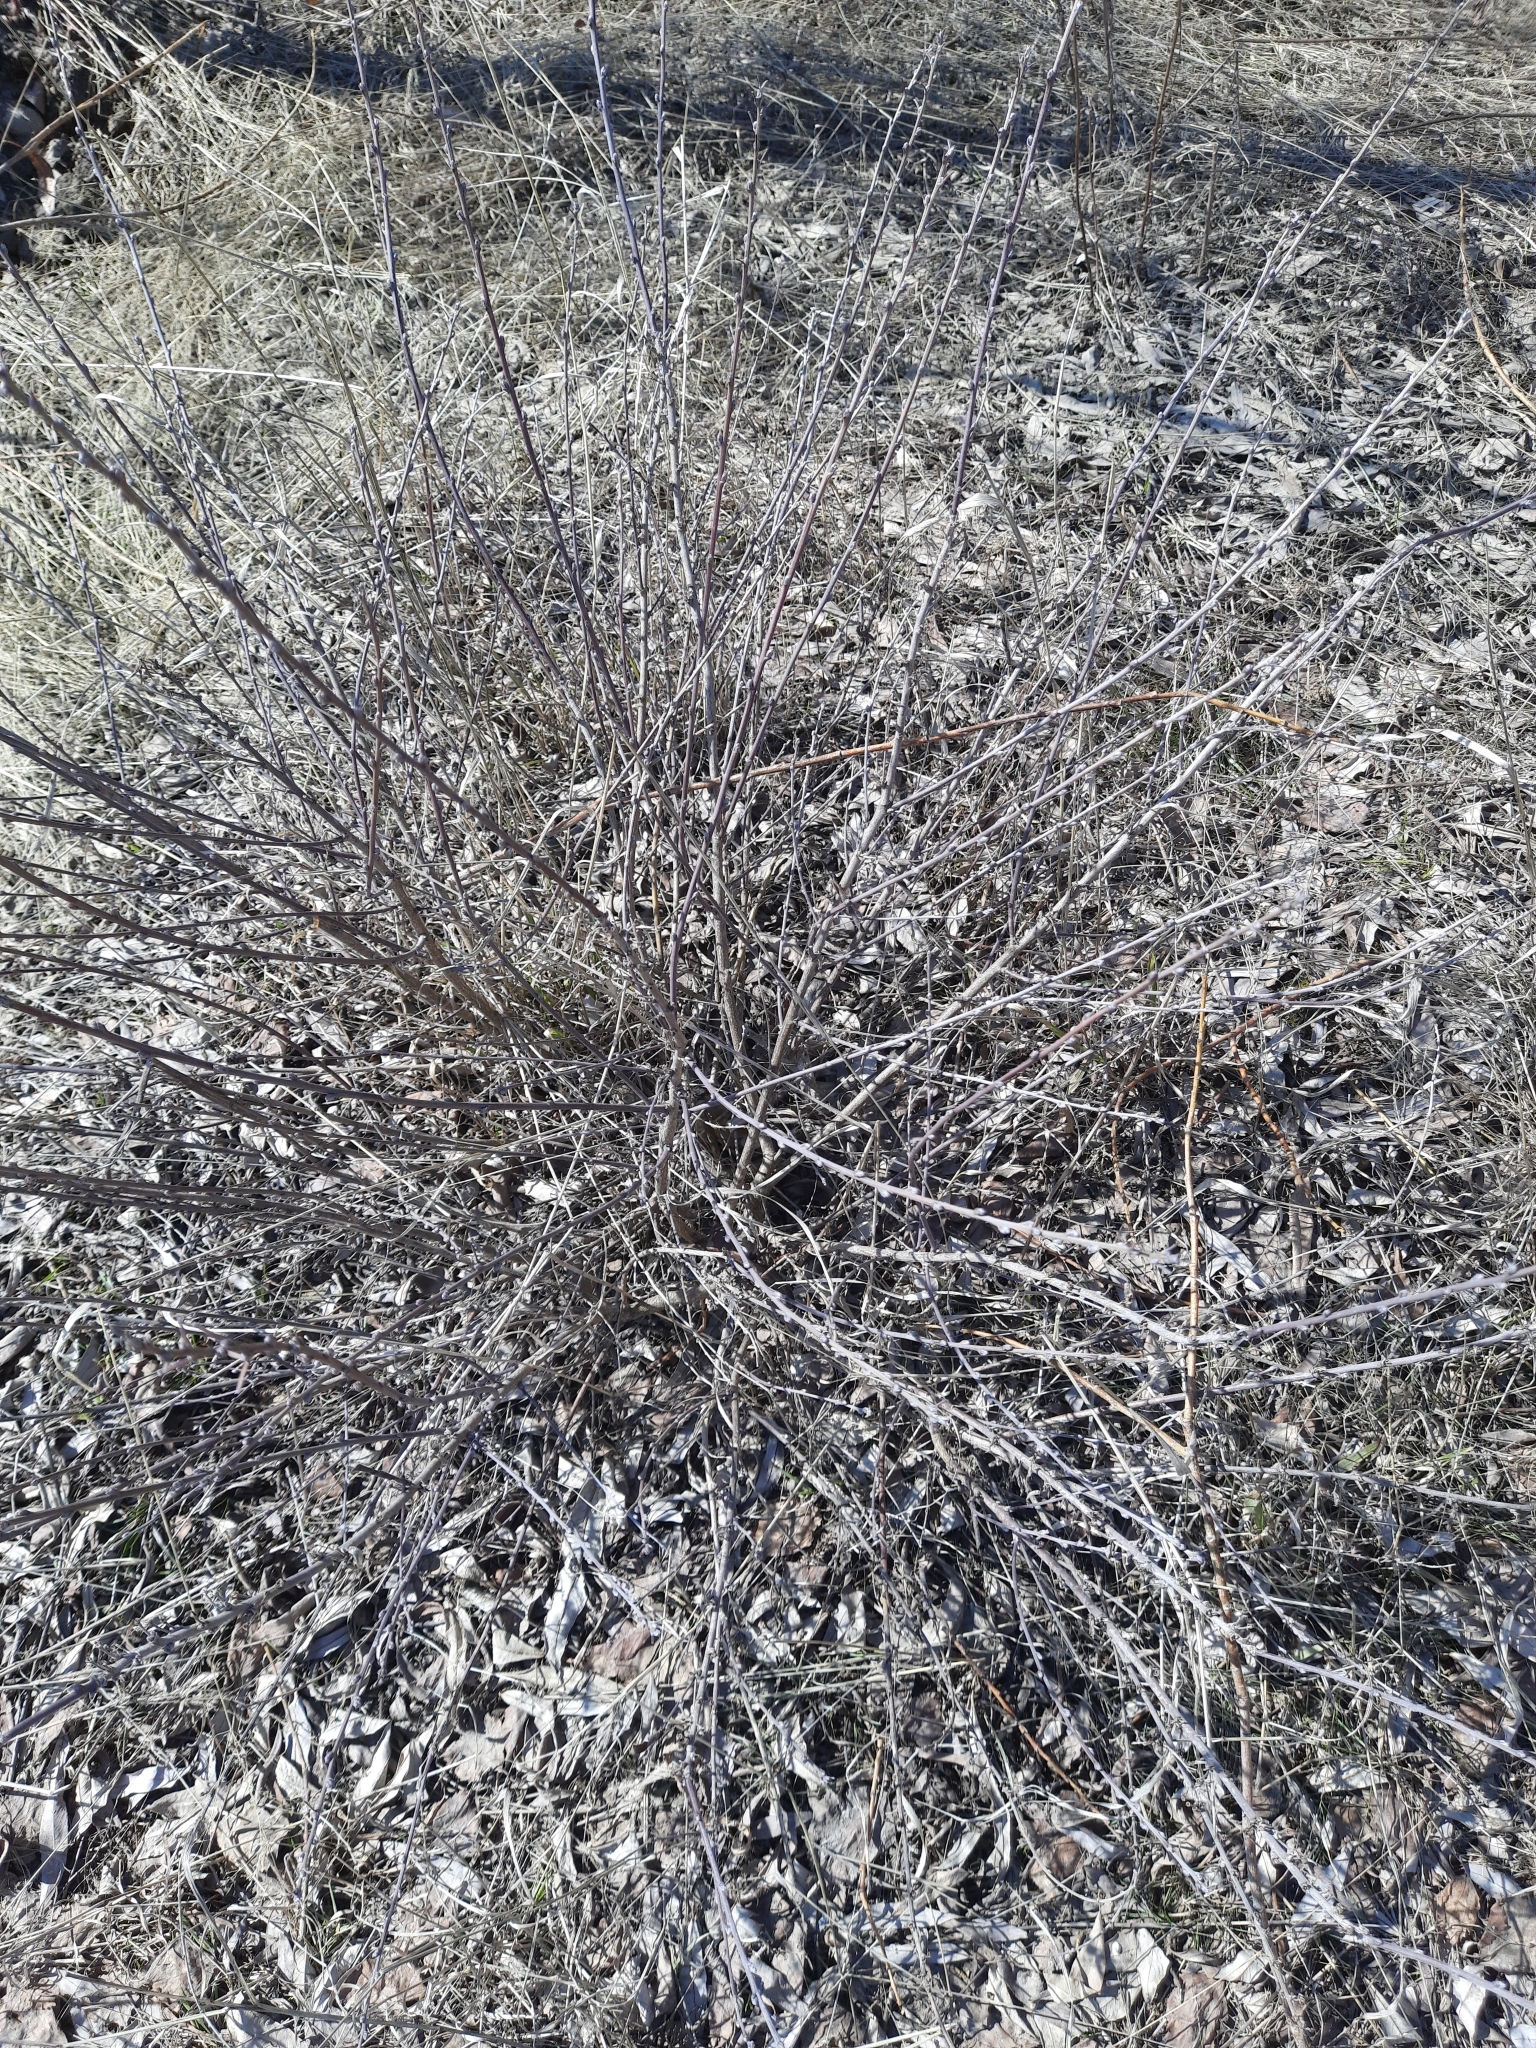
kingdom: Plantae
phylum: Tracheophyta
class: Magnoliopsida
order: Fabales
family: Fabaceae
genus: Chamaecytisus
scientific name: Chamaecytisus ruthenicus
